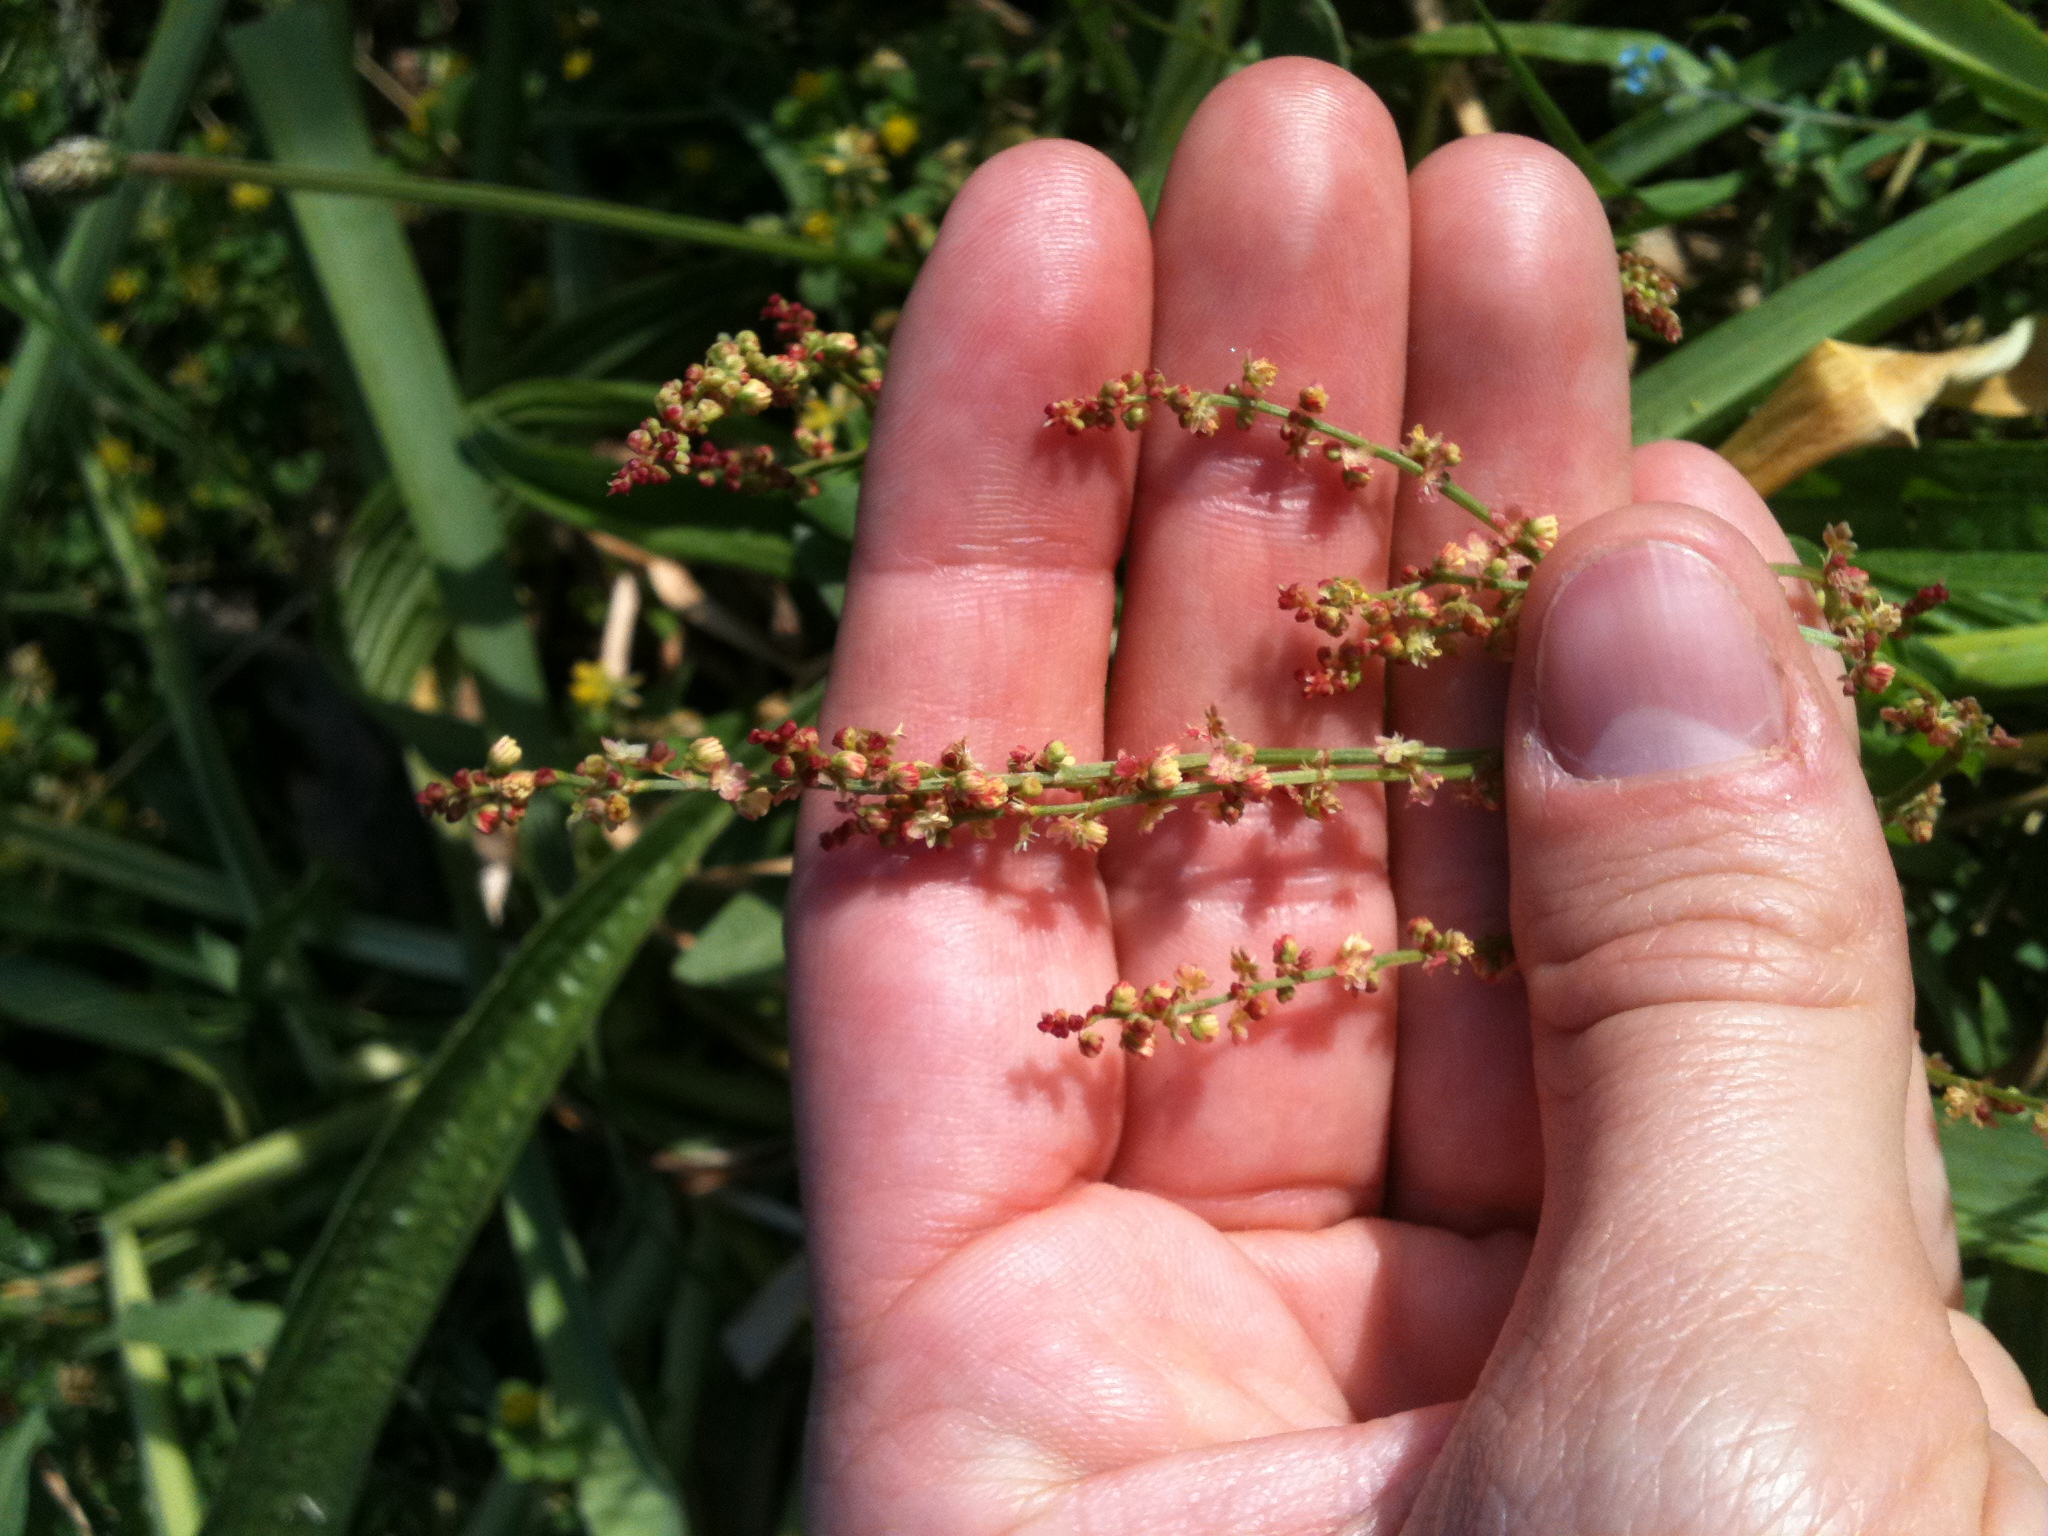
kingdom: Plantae
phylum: Tracheophyta
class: Magnoliopsida
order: Caryophyllales
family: Polygonaceae
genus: Rumex
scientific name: Rumex acetosella
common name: Common sheep sorrel
